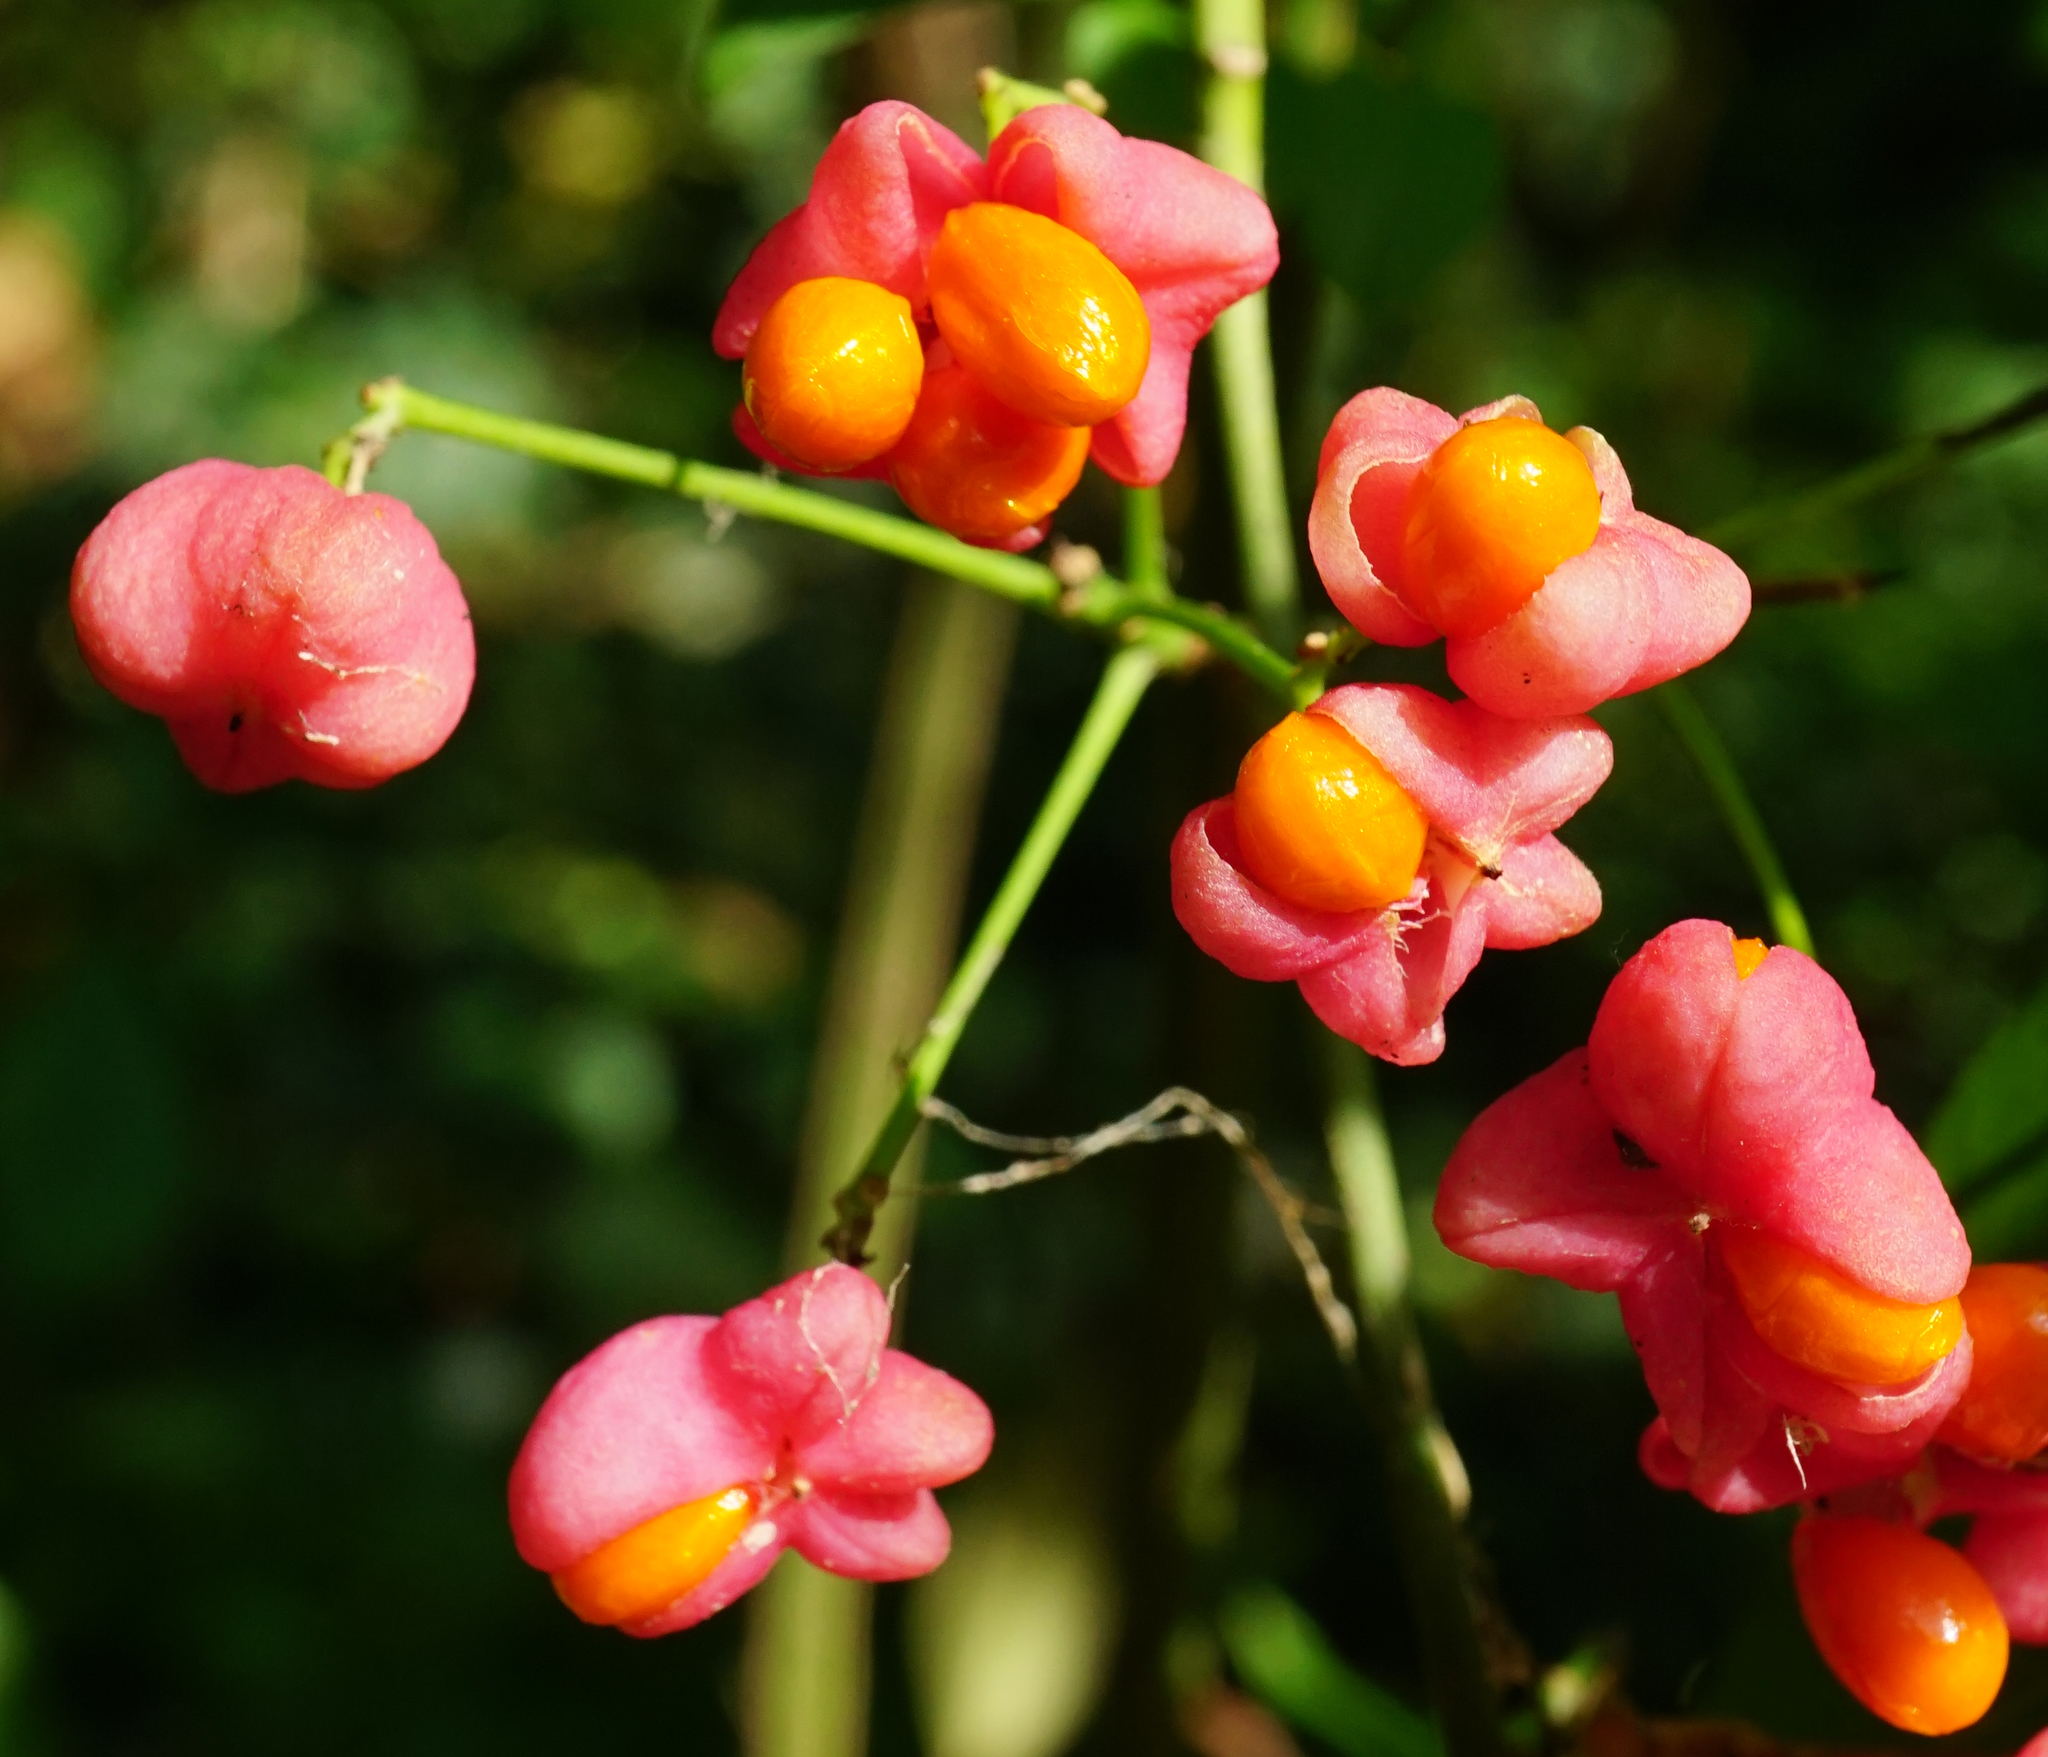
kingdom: Plantae
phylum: Tracheophyta
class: Magnoliopsida
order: Celastrales
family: Celastraceae
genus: Euonymus
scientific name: Euonymus europaeus
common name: Spindle
